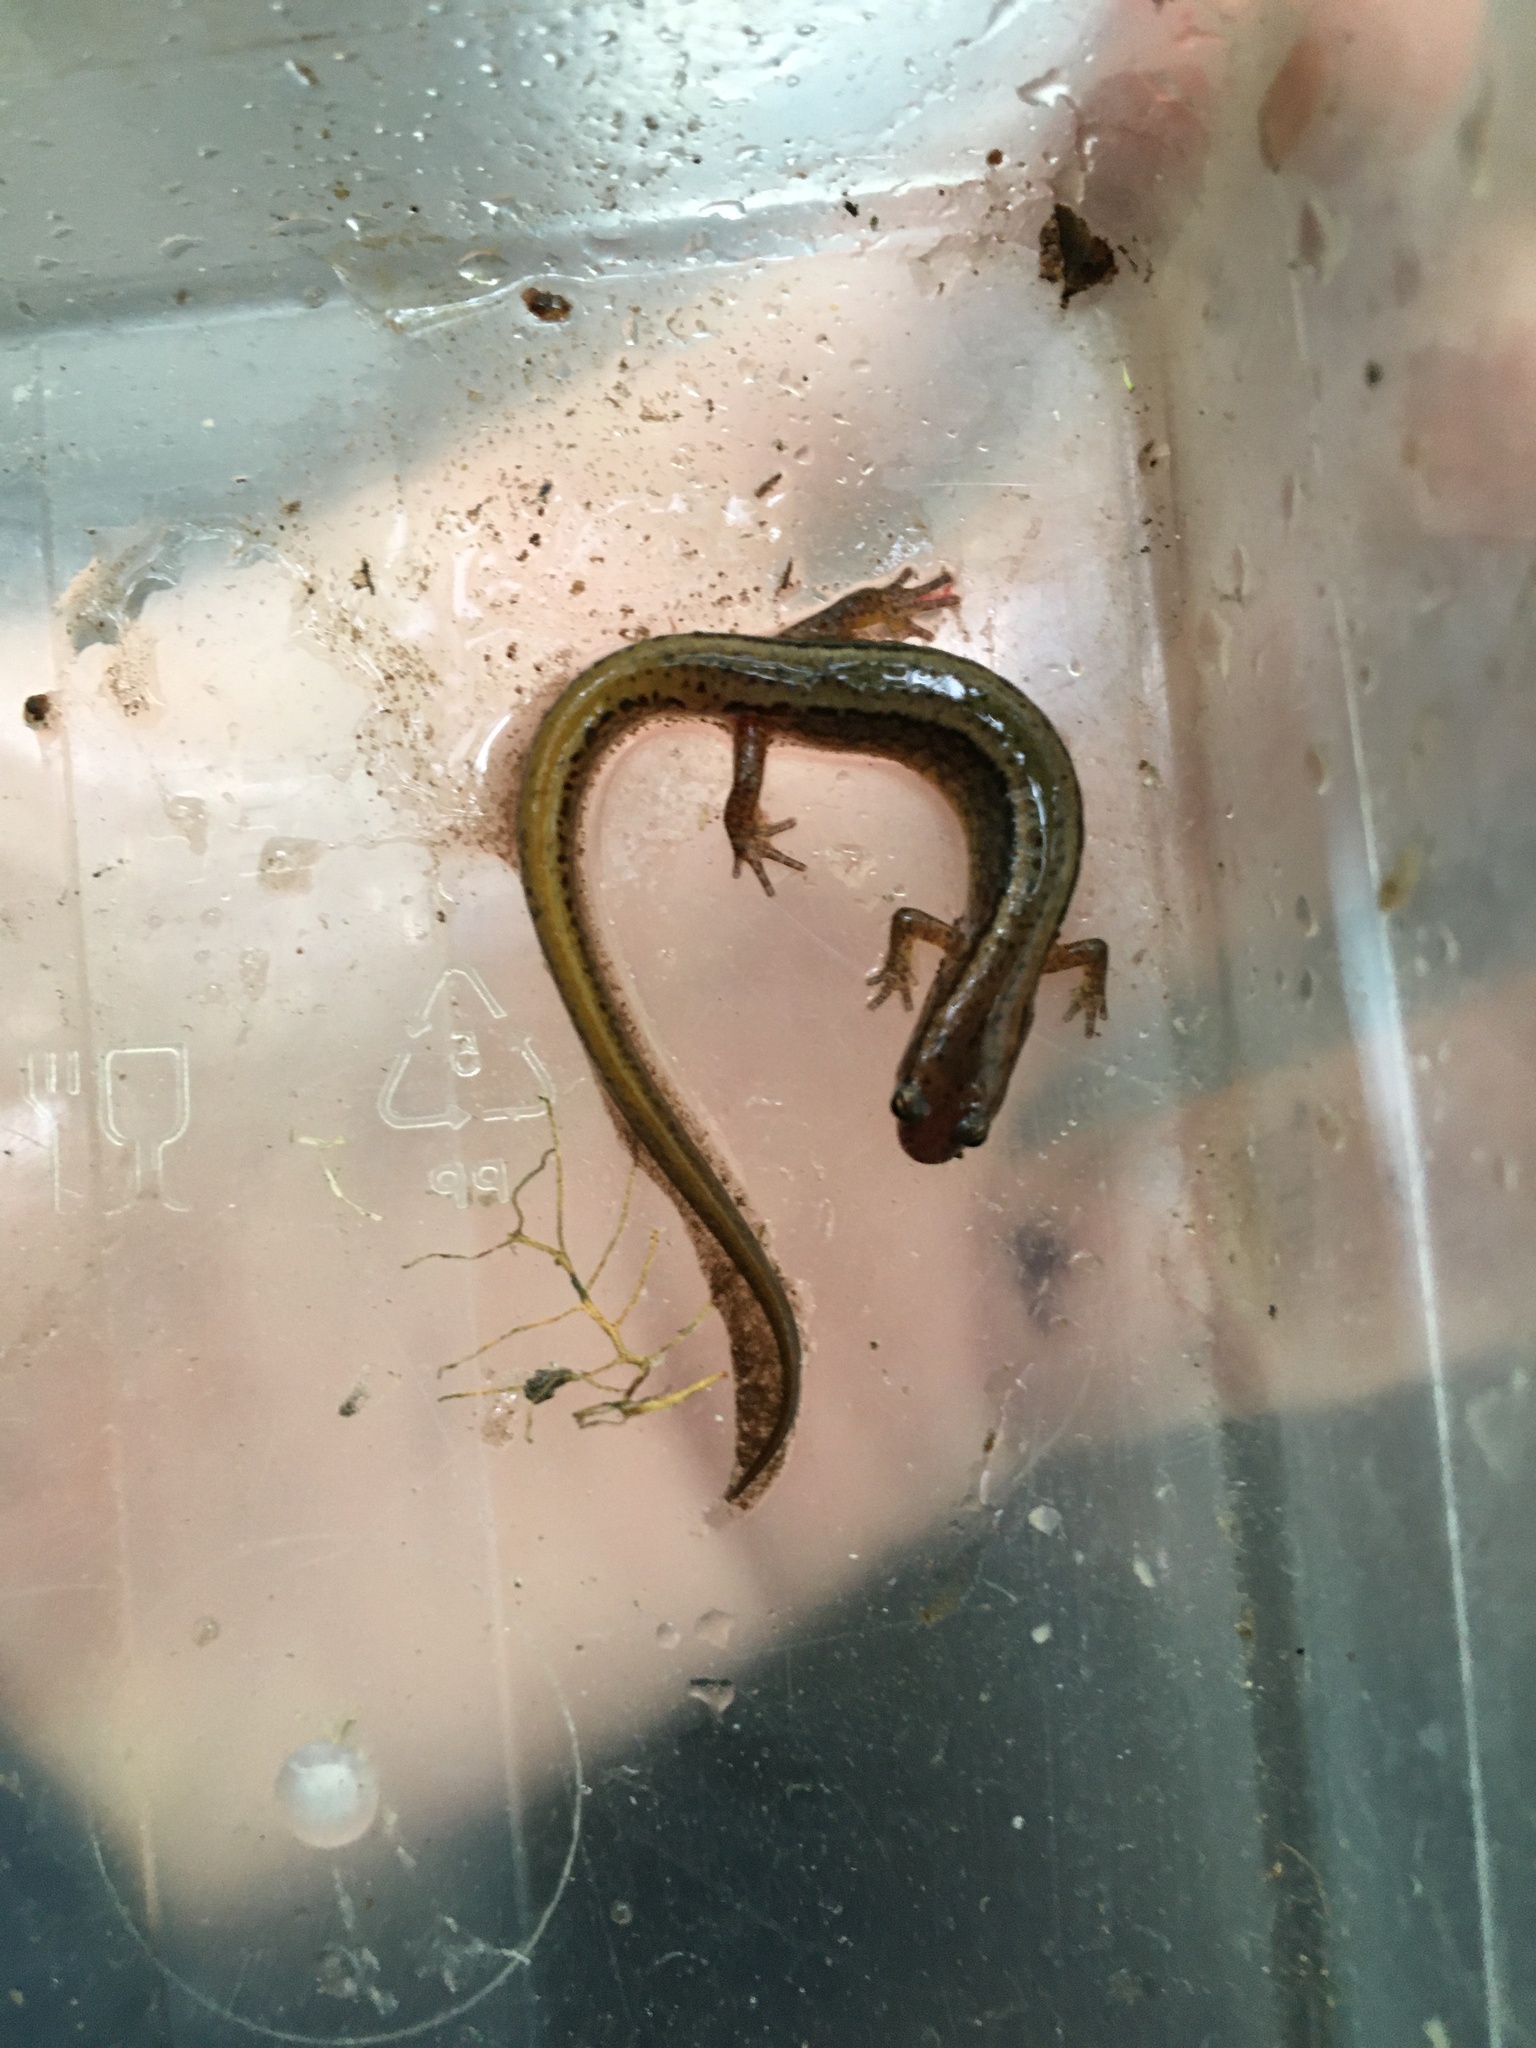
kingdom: Animalia
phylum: Chordata
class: Amphibia
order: Caudata
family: Plethodontidae
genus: Eurycea
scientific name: Eurycea bislineata
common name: Northern two-lined salamander
